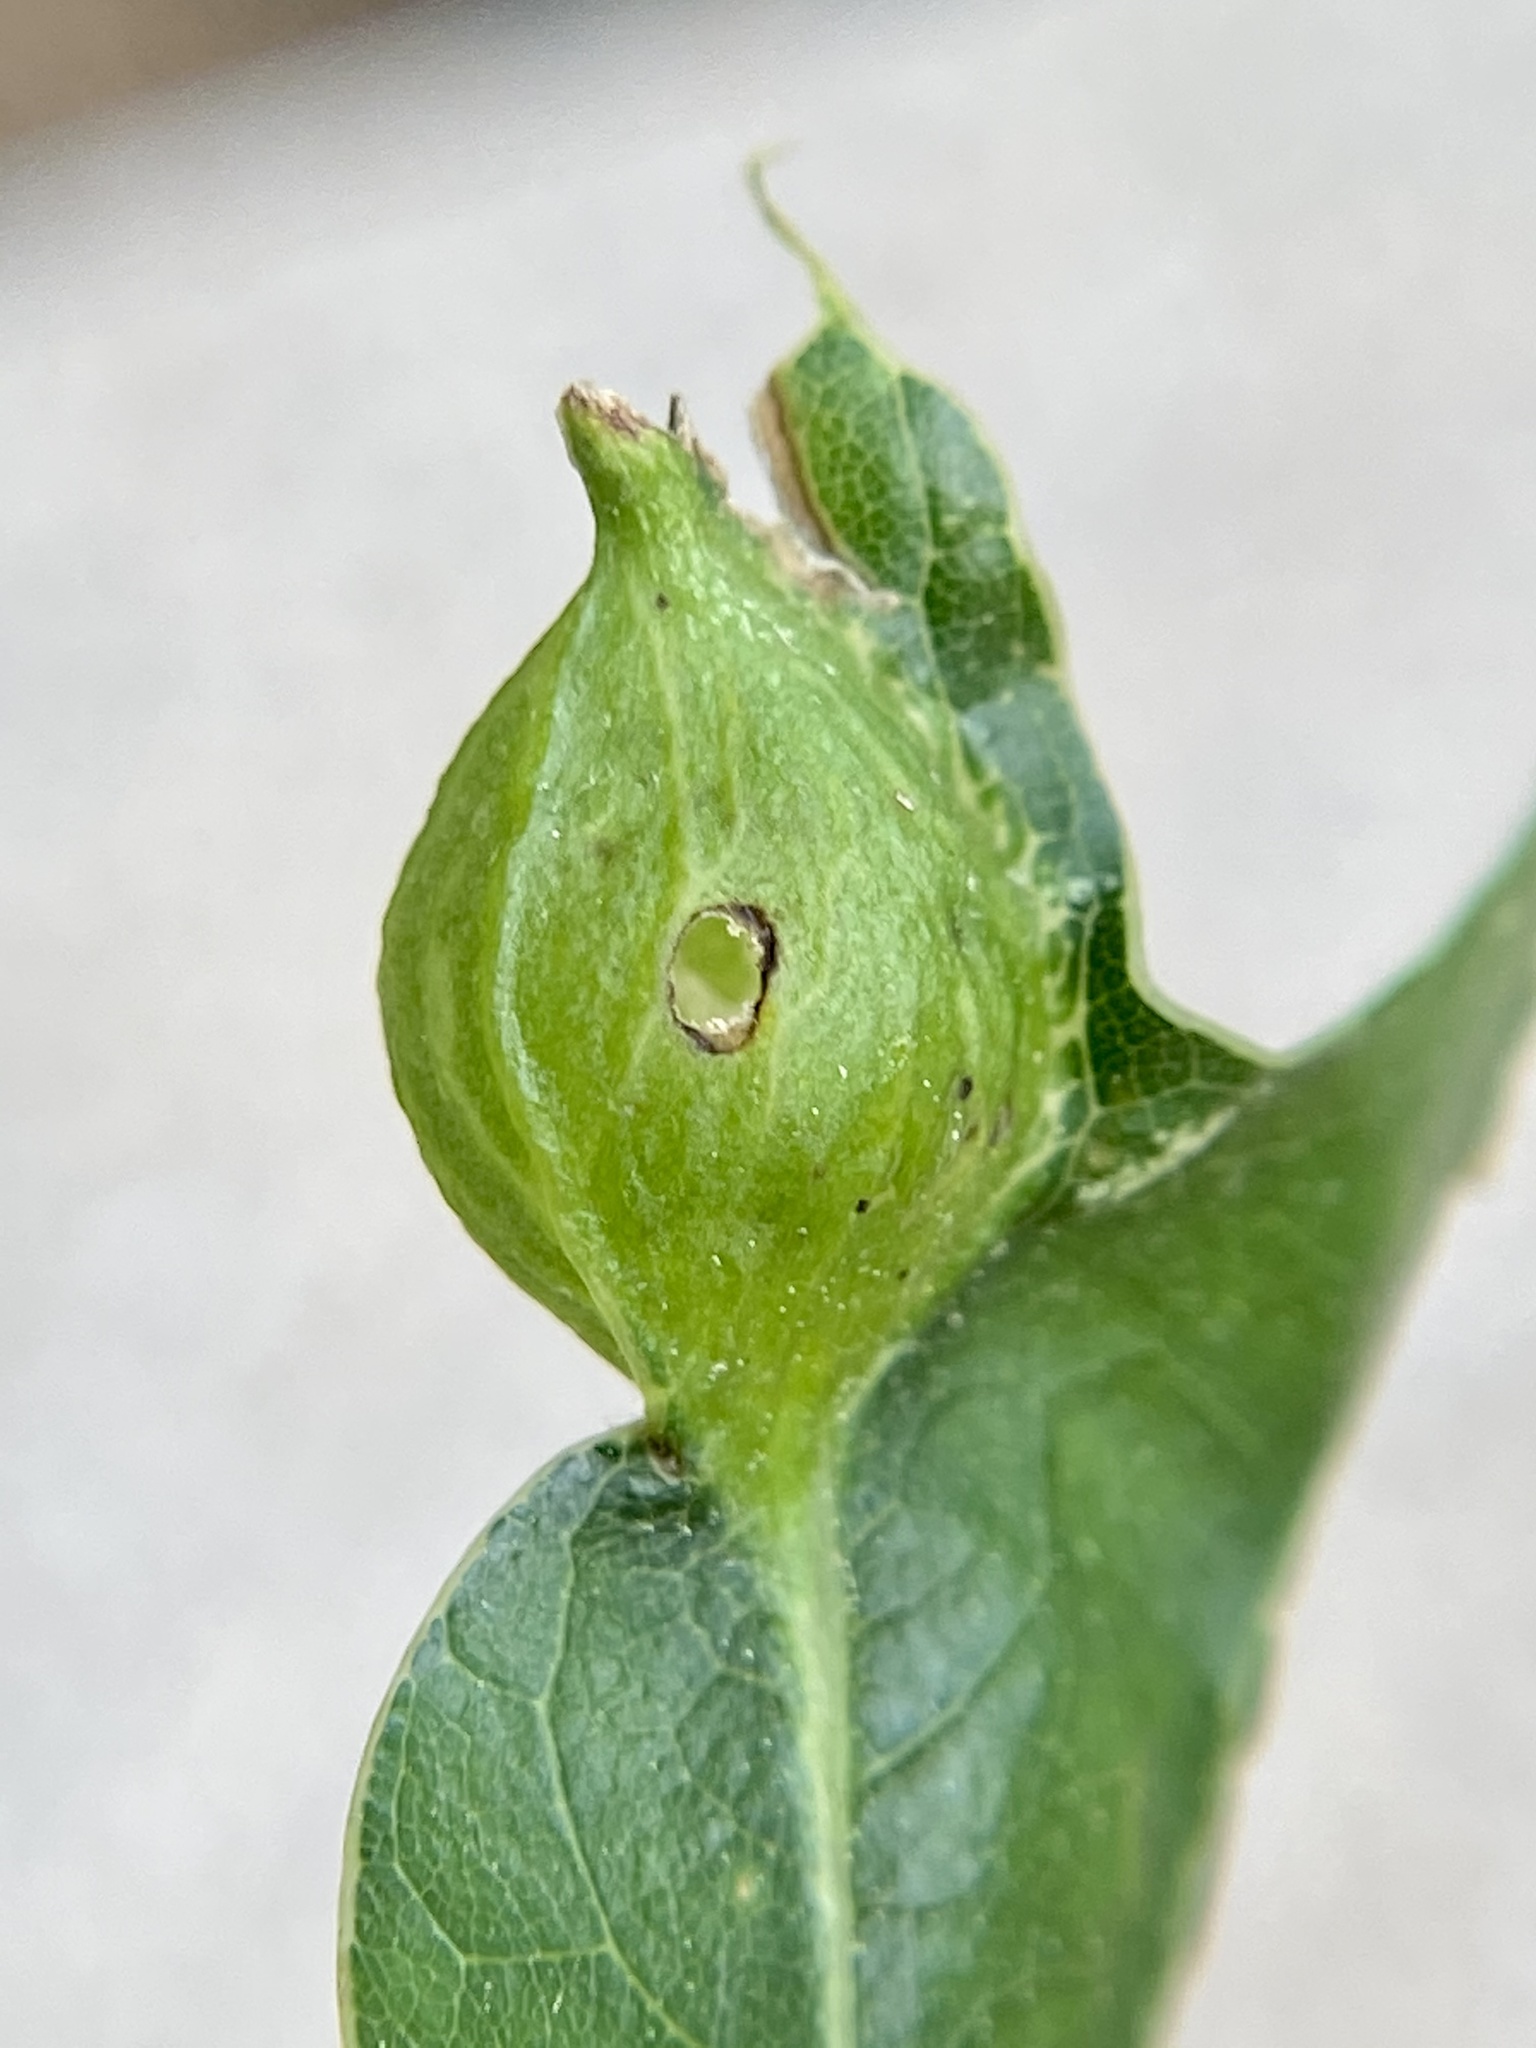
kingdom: Animalia
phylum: Arthropoda
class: Insecta
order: Hymenoptera
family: Cynipidae
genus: Dryocosmus
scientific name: Dryocosmus
